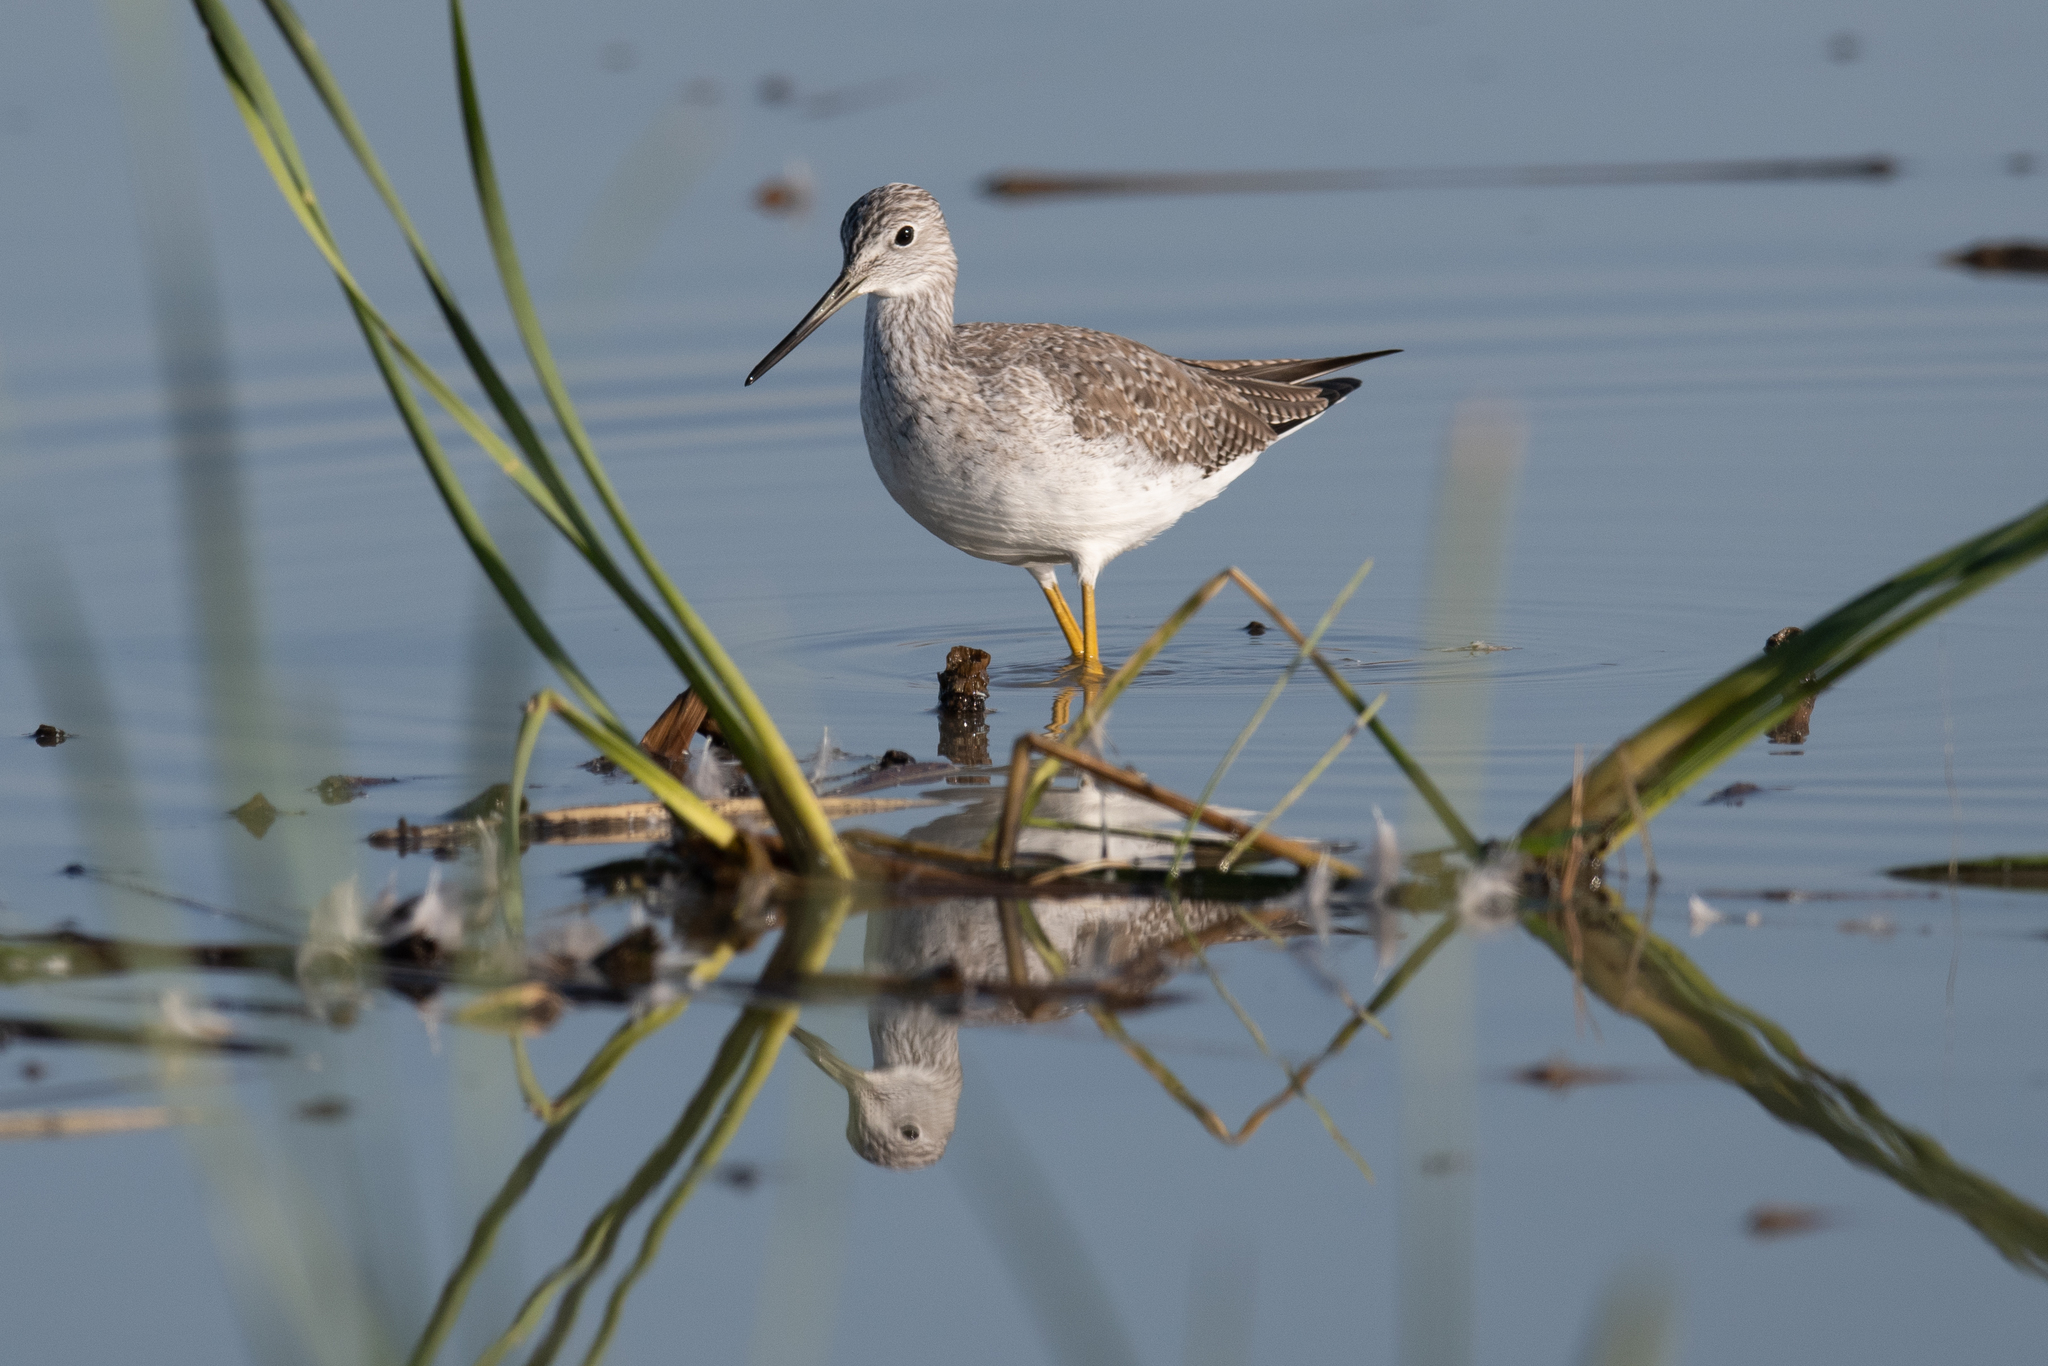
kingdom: Animalia
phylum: Chordata
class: Aves
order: Charadriiformes
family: Scolopacidae
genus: Tringa
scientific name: Tringa melanoleuca
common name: Greater yellowlegs
